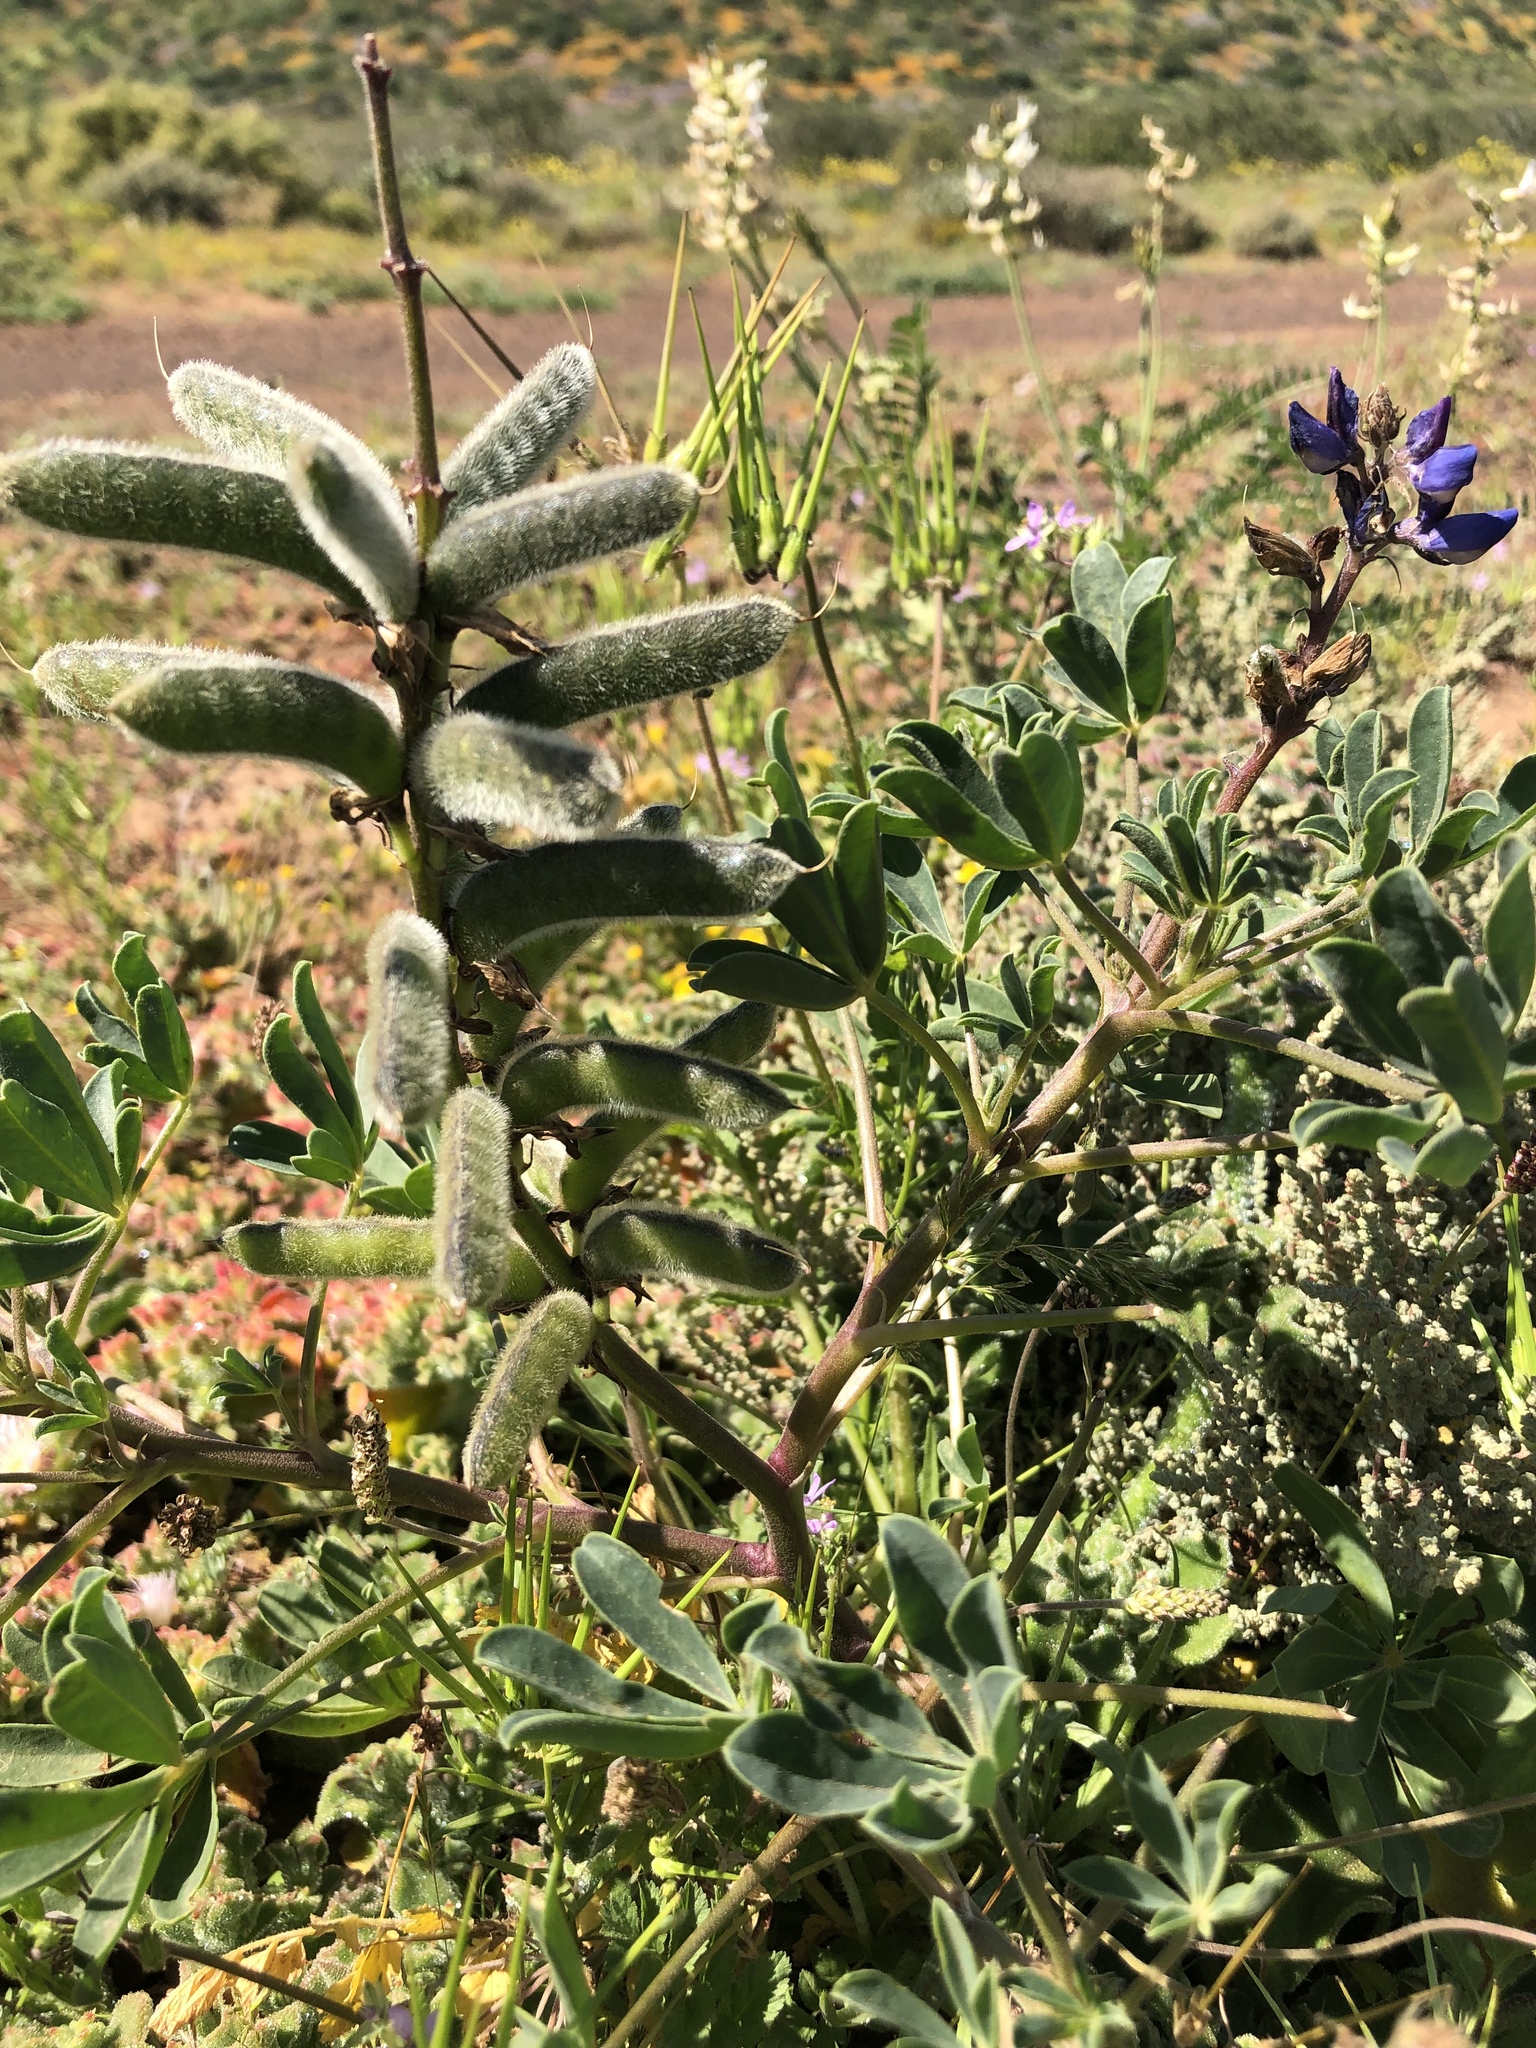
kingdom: Plantae
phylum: Tracheophyta
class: Magnoliopsida
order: Fabales
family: Fabaceae
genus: Lupinus
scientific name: Lupinus succulentus
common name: Arroyo lupine
